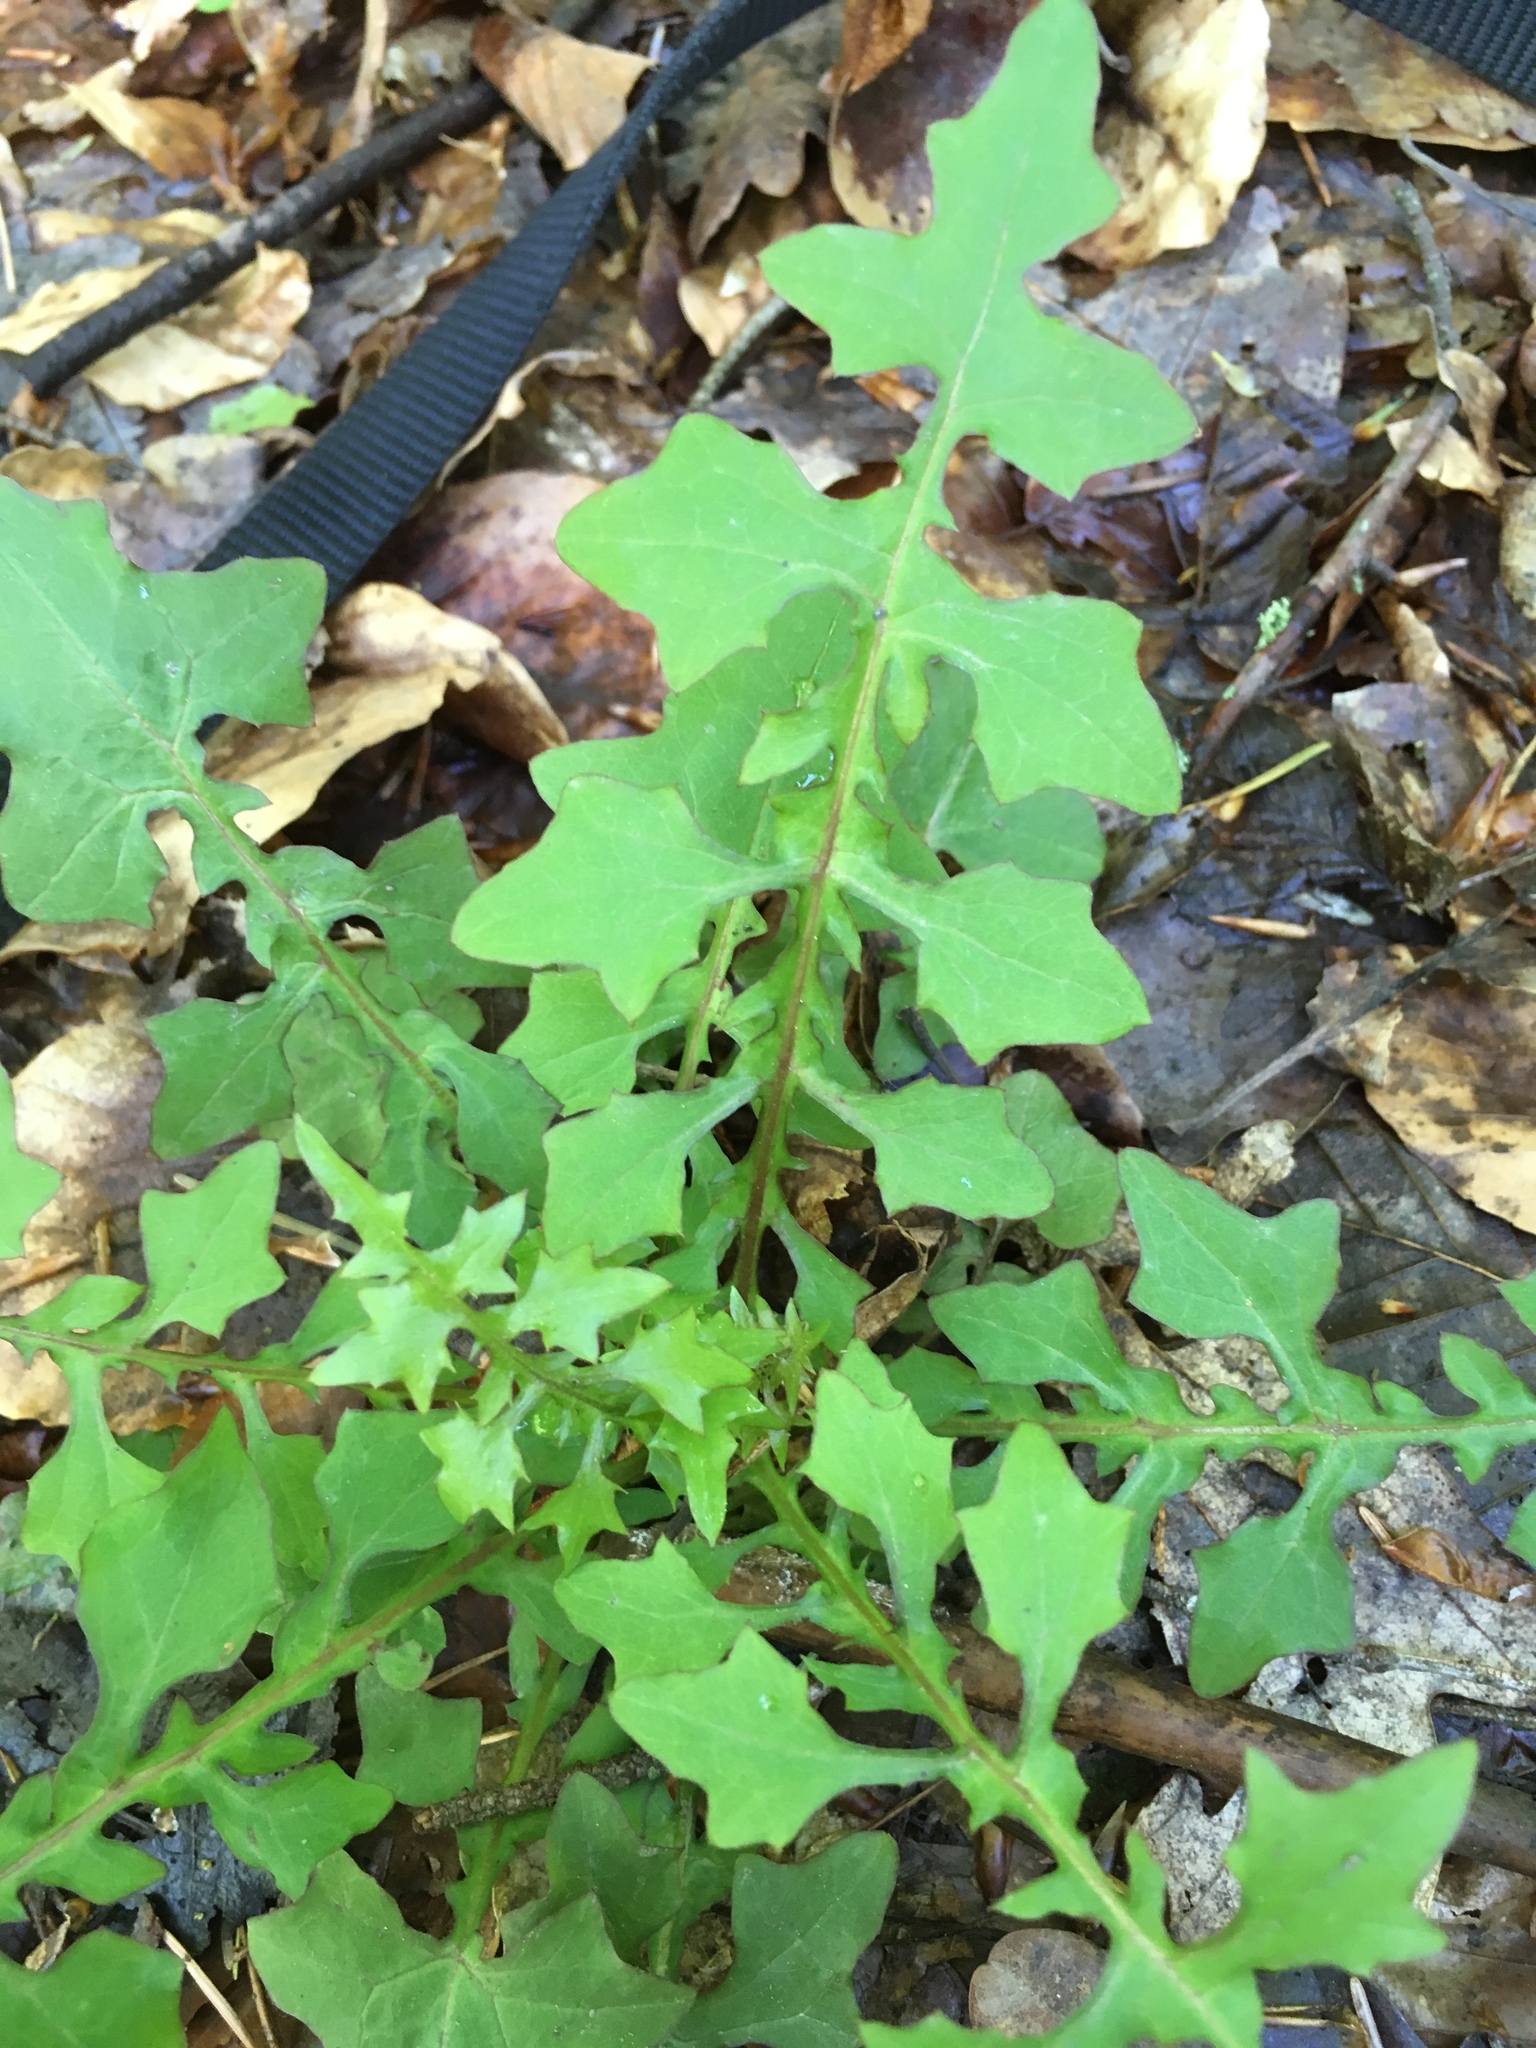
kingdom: Plantae
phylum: Tracheophyta
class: Magnoliopsida
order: Asterales
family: Asteraceae
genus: Mycelis
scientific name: Mycelis muralis
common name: Wall lettuce
